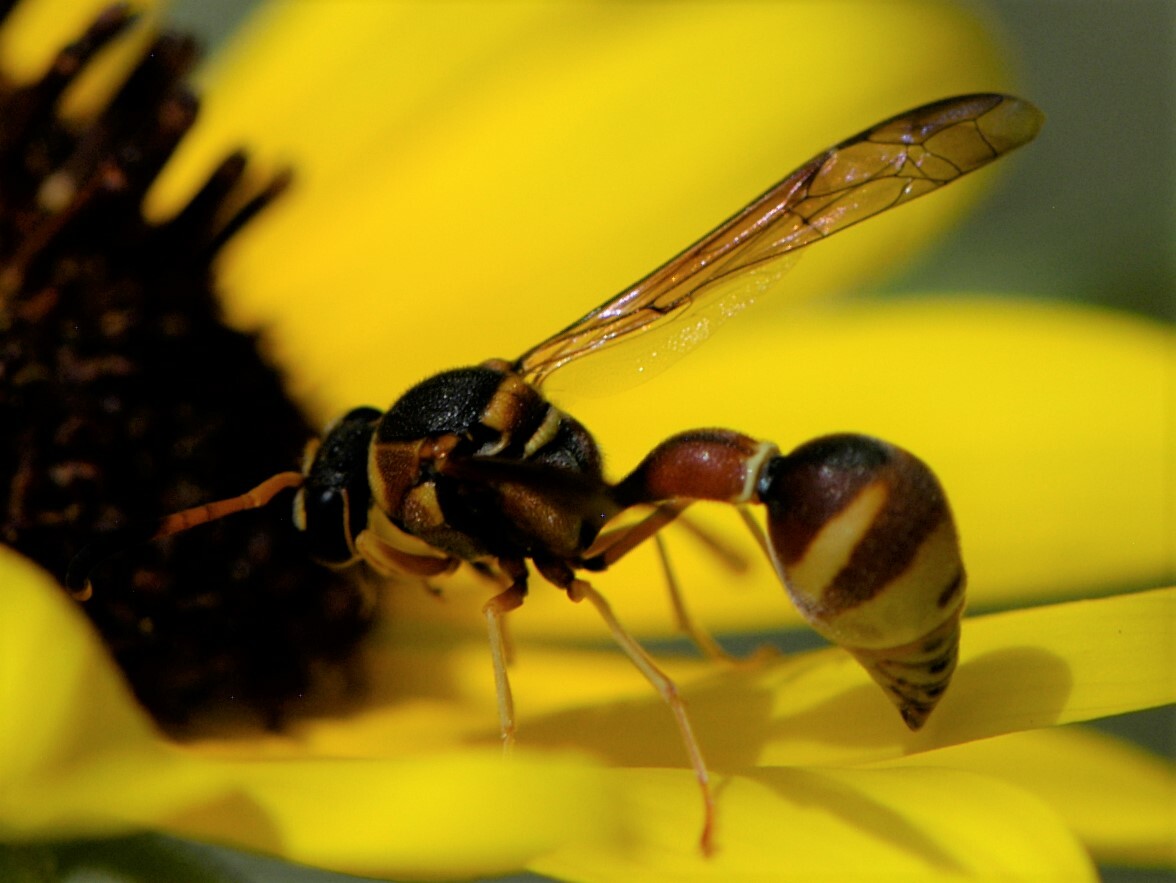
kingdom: Animalia
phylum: Arthropoda
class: Insecta
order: Hymenoptera
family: Vespidae
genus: Eumenes
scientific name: Eumenes americanus
